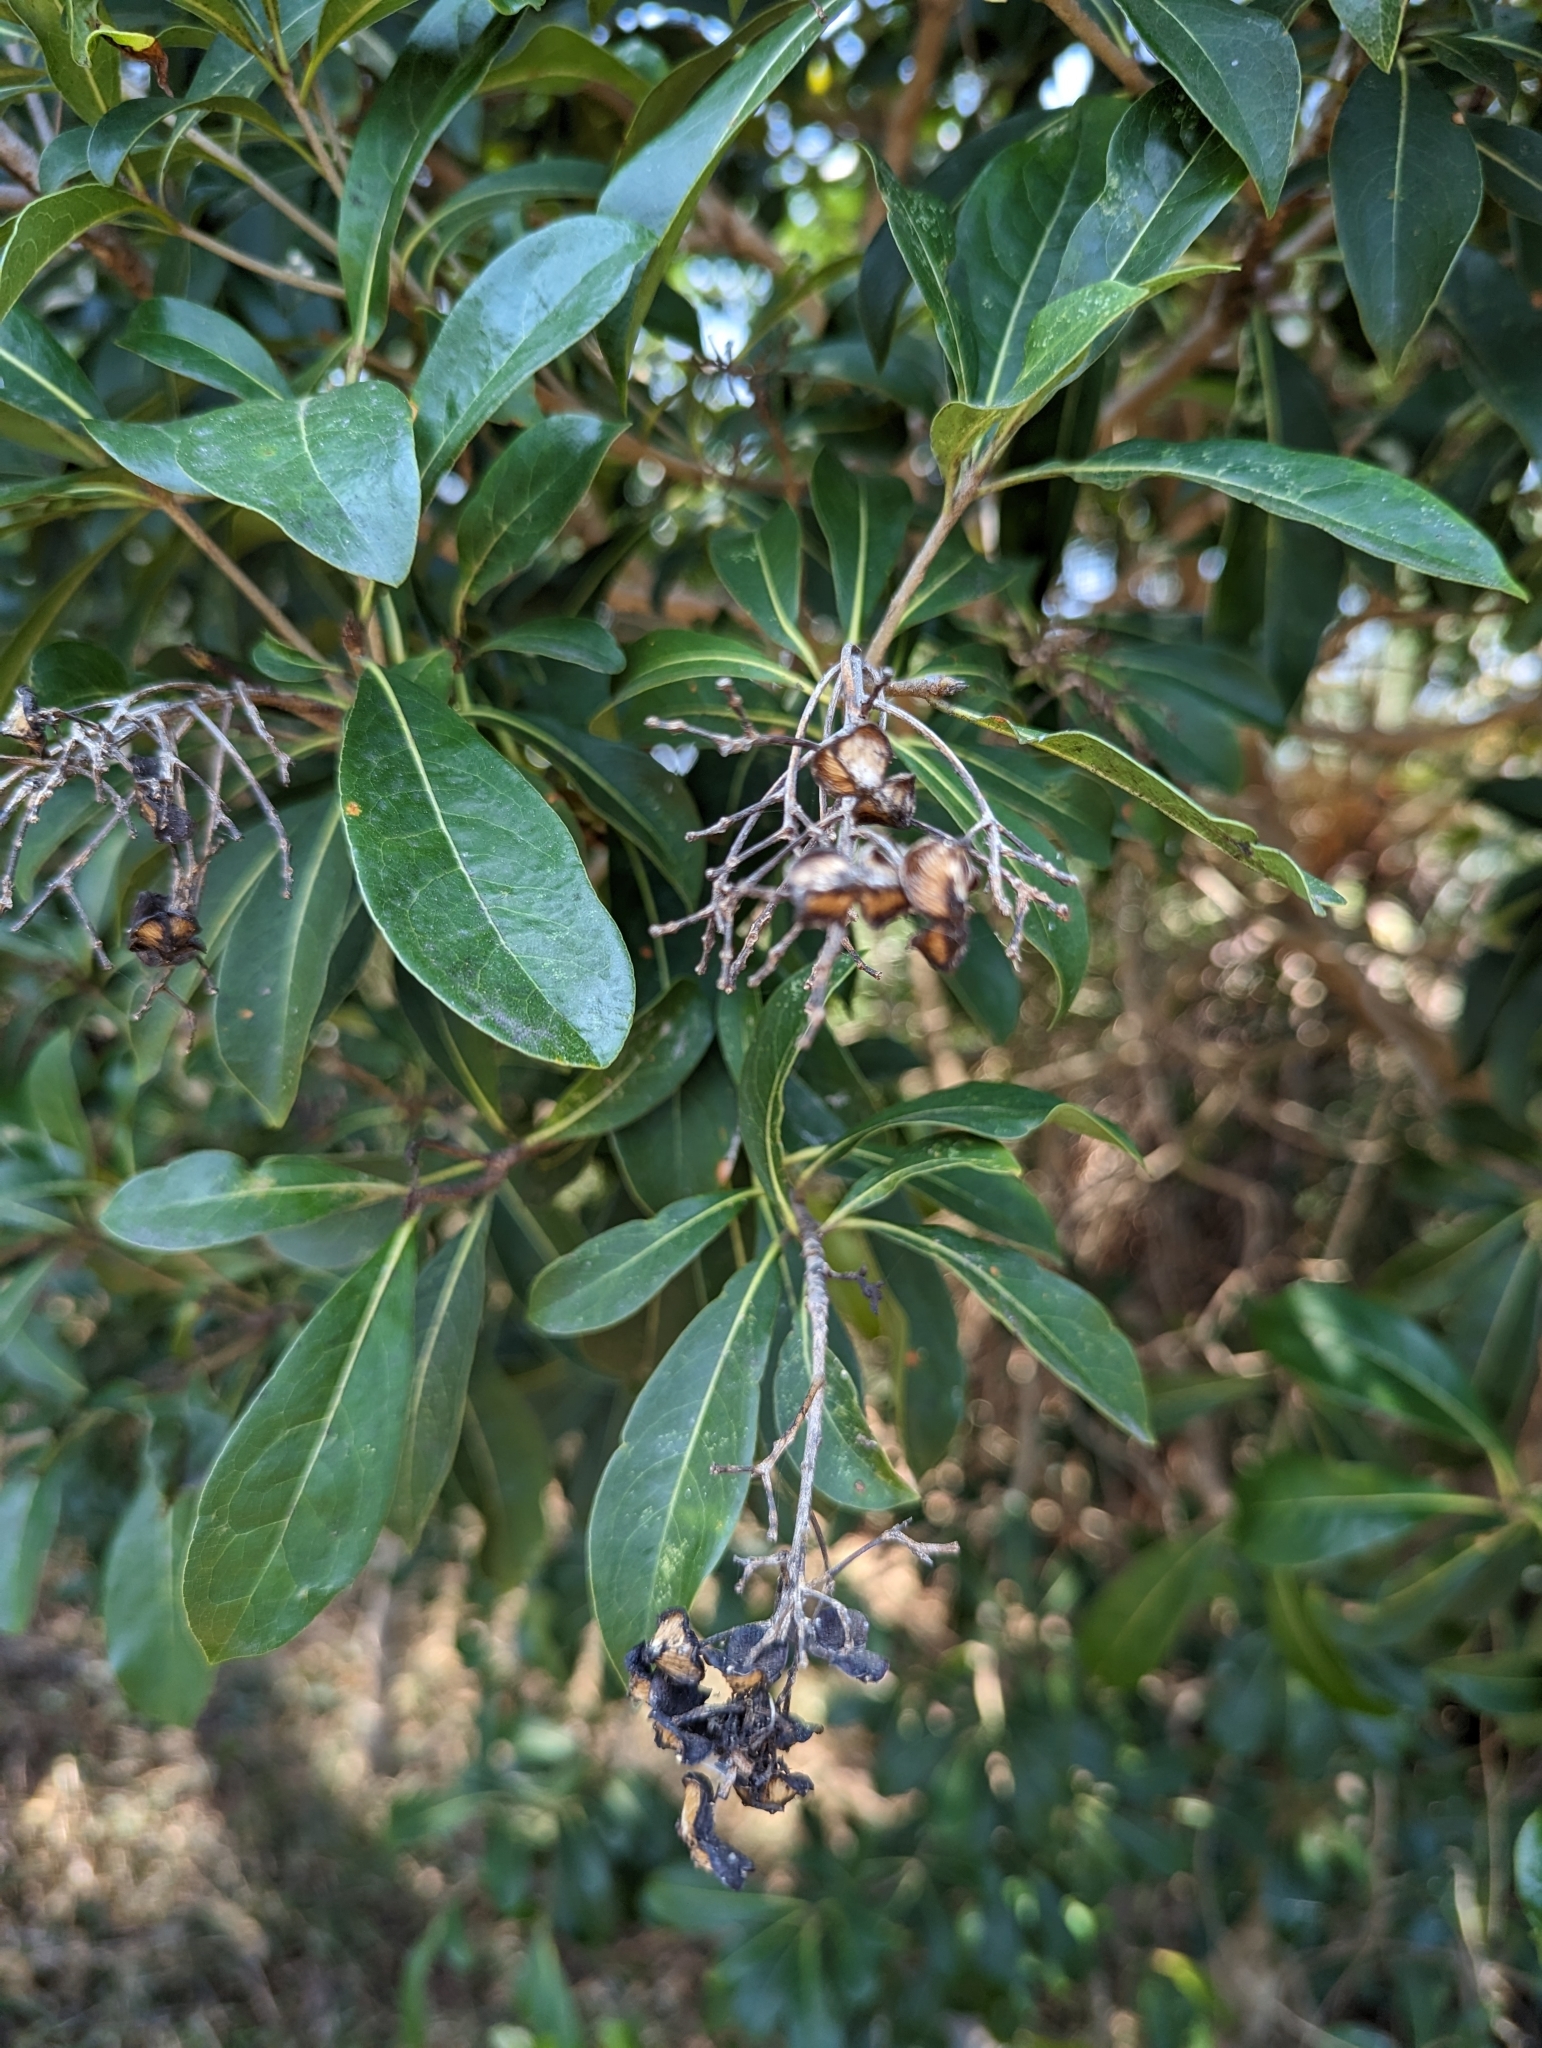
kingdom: Plantae
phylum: Tracheophyta
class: Magnoliopsida
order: Apiales
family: Pittosporaceae
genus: Pittosporum
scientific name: Pittosporum pentandrum
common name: Taiwanese cheesewood
